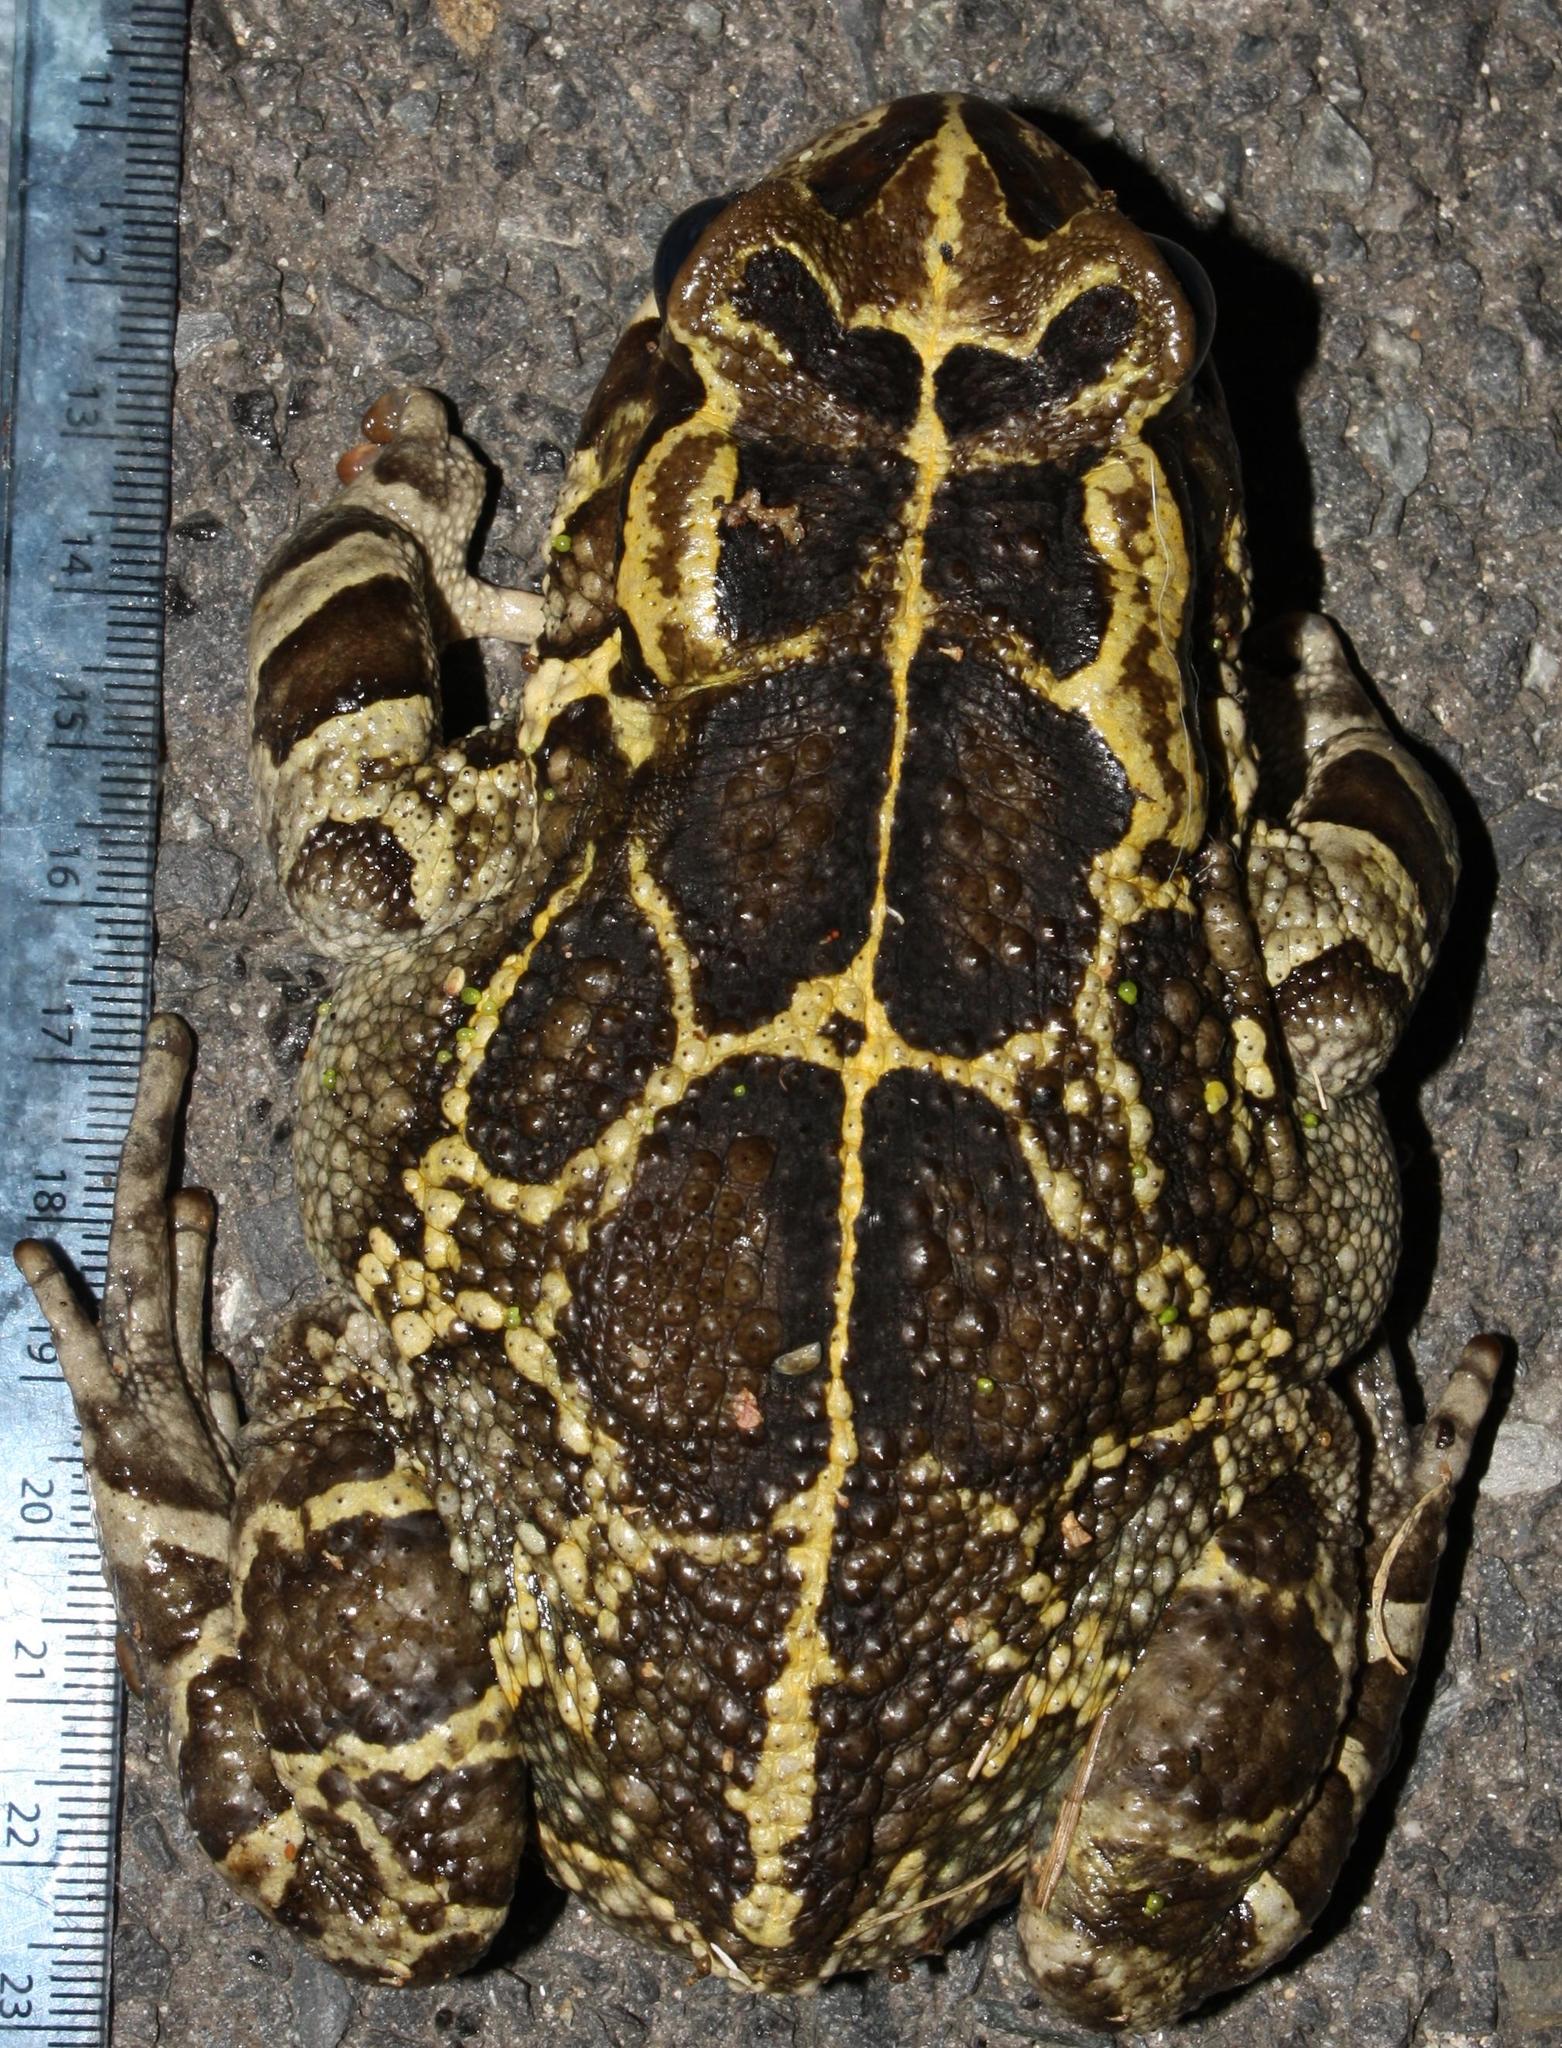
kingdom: Animalia
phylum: Chordata
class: Amphibia
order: Anura
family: Bufonidae
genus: Sclerophrys
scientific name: Sclerophrys pantherina
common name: Panther toad
